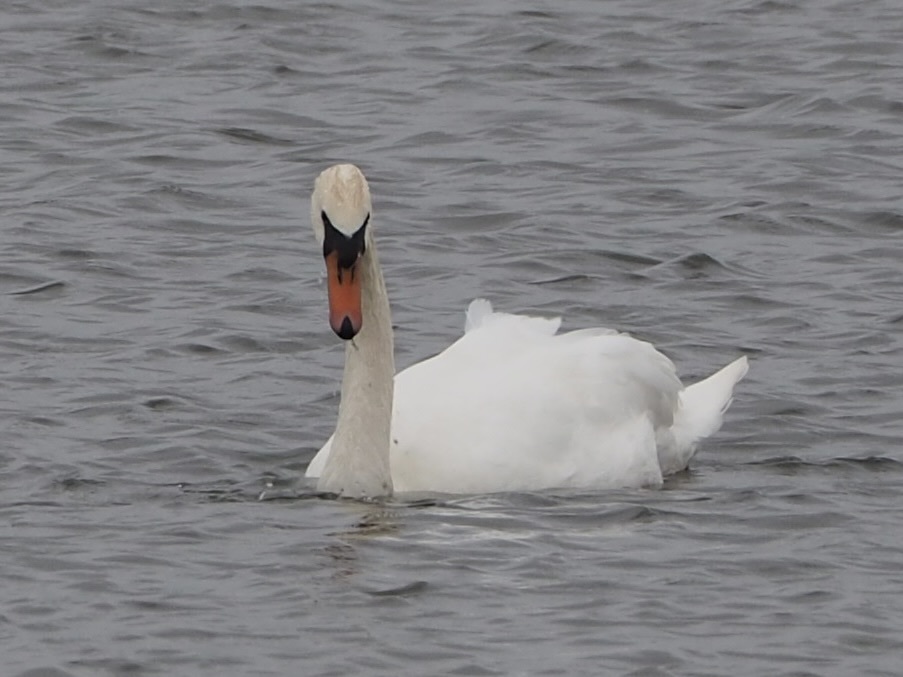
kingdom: Animalia
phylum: Chordata
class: Aves
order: Anseriformes
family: Anatidae
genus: Cygnus
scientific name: Cygnus olor
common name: Mute swan
